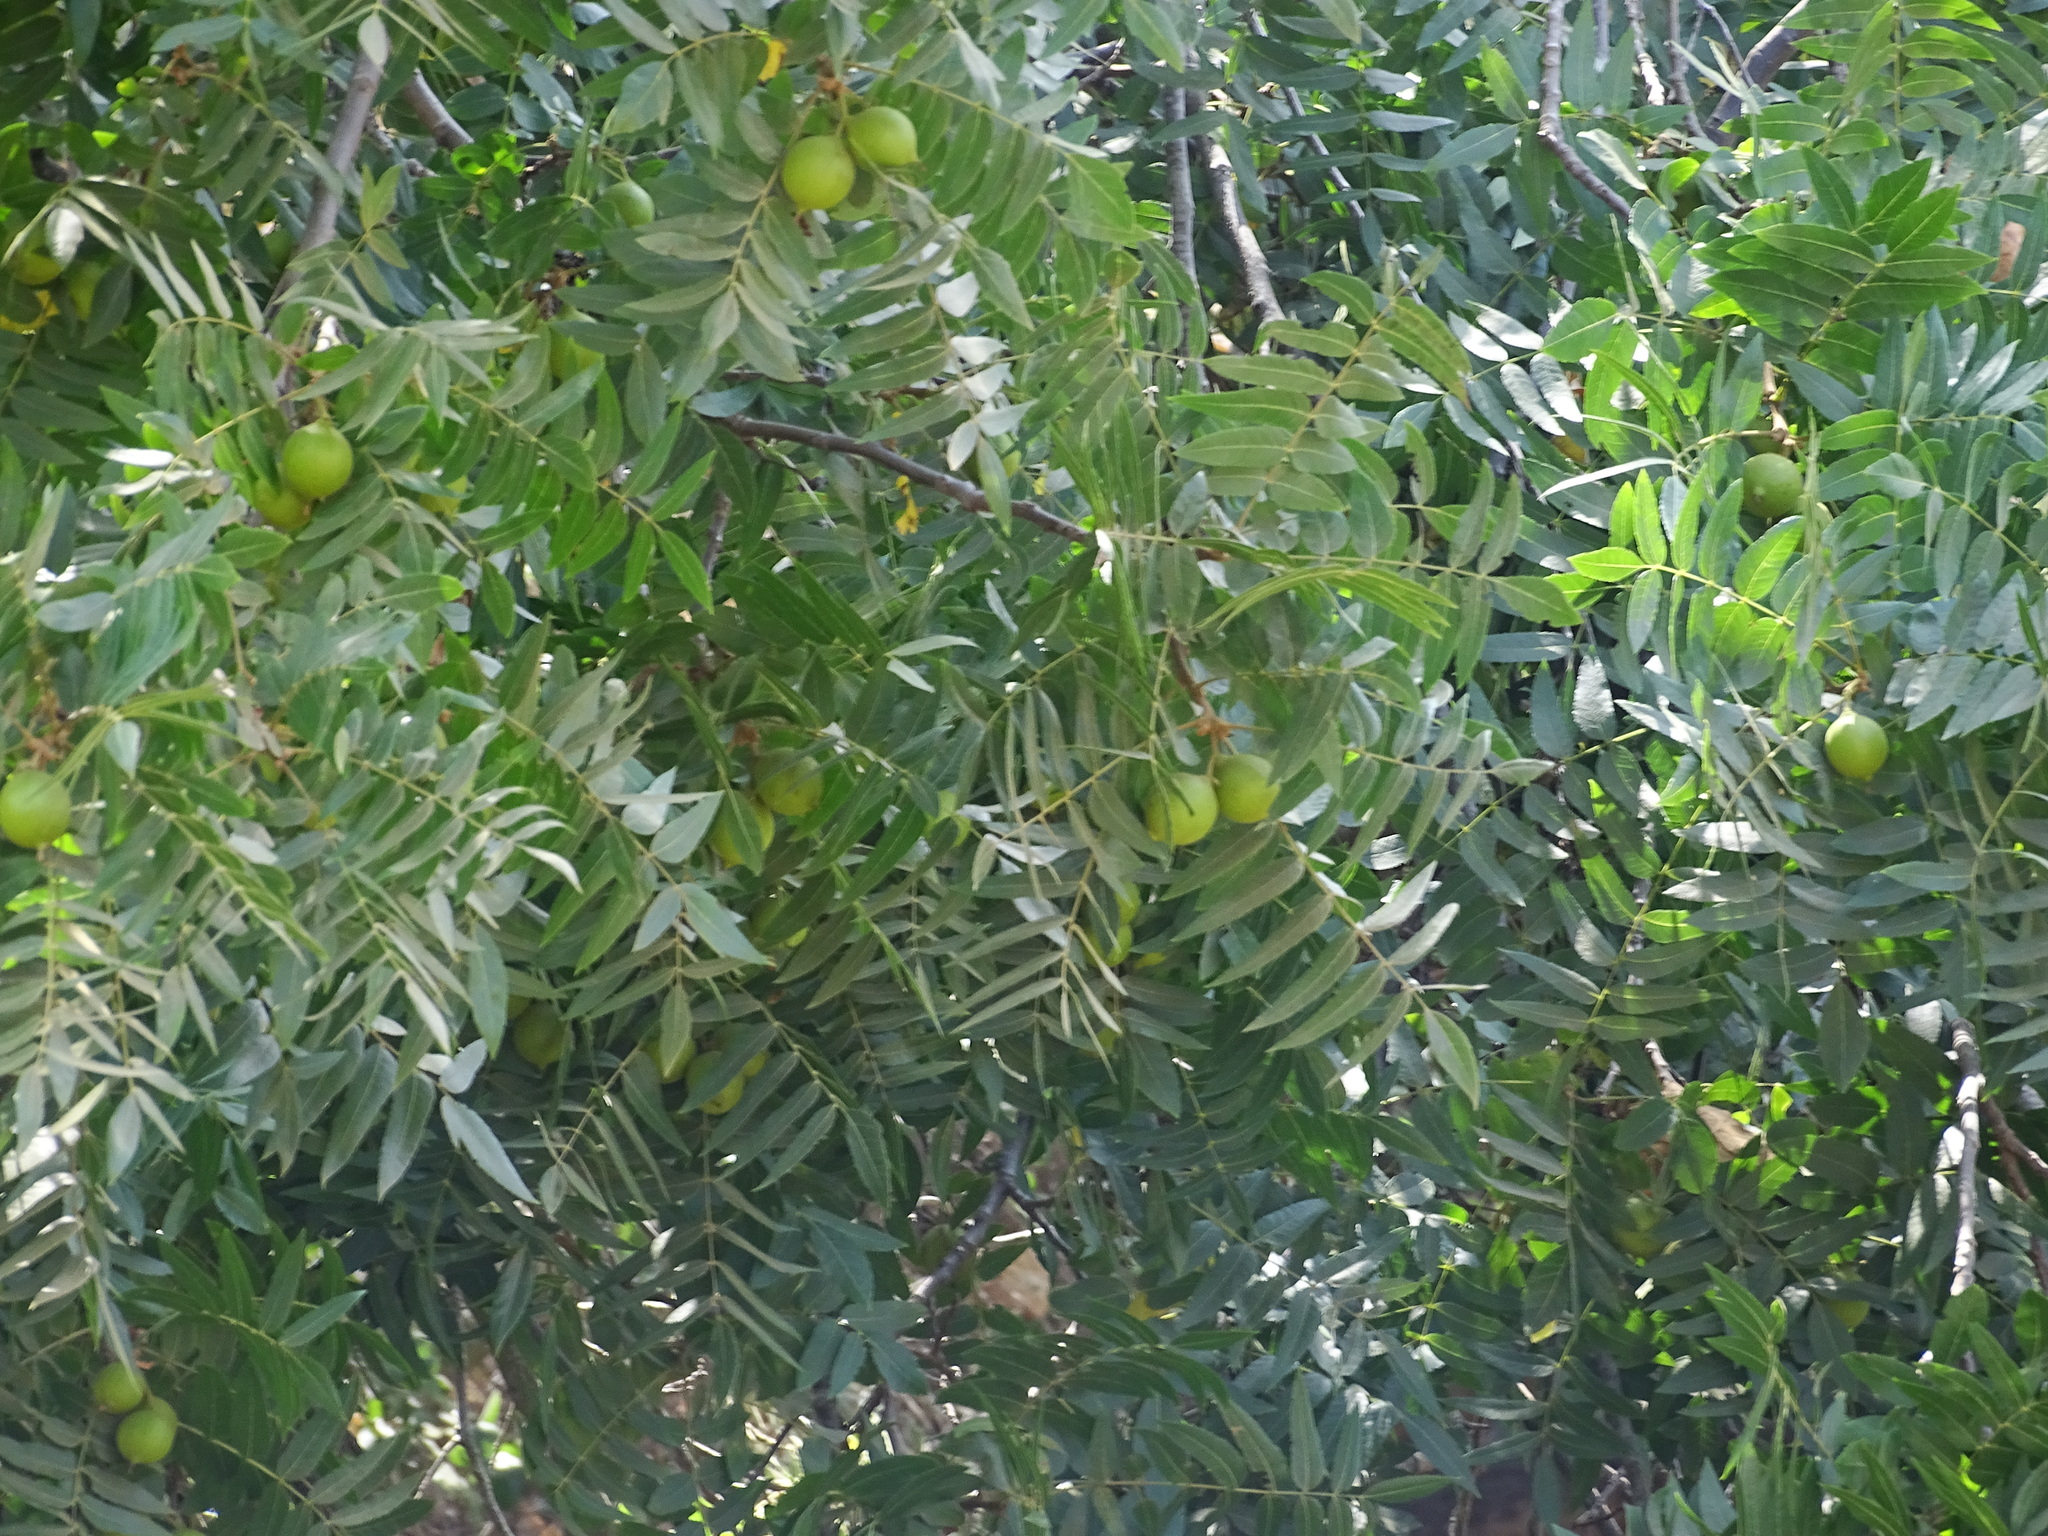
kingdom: Plantae
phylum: Tracheophyta
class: Magnoliopsida
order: Fagales
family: Juglandaceae
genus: Juglans
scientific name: Juglans californica
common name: Southern california black walnut
